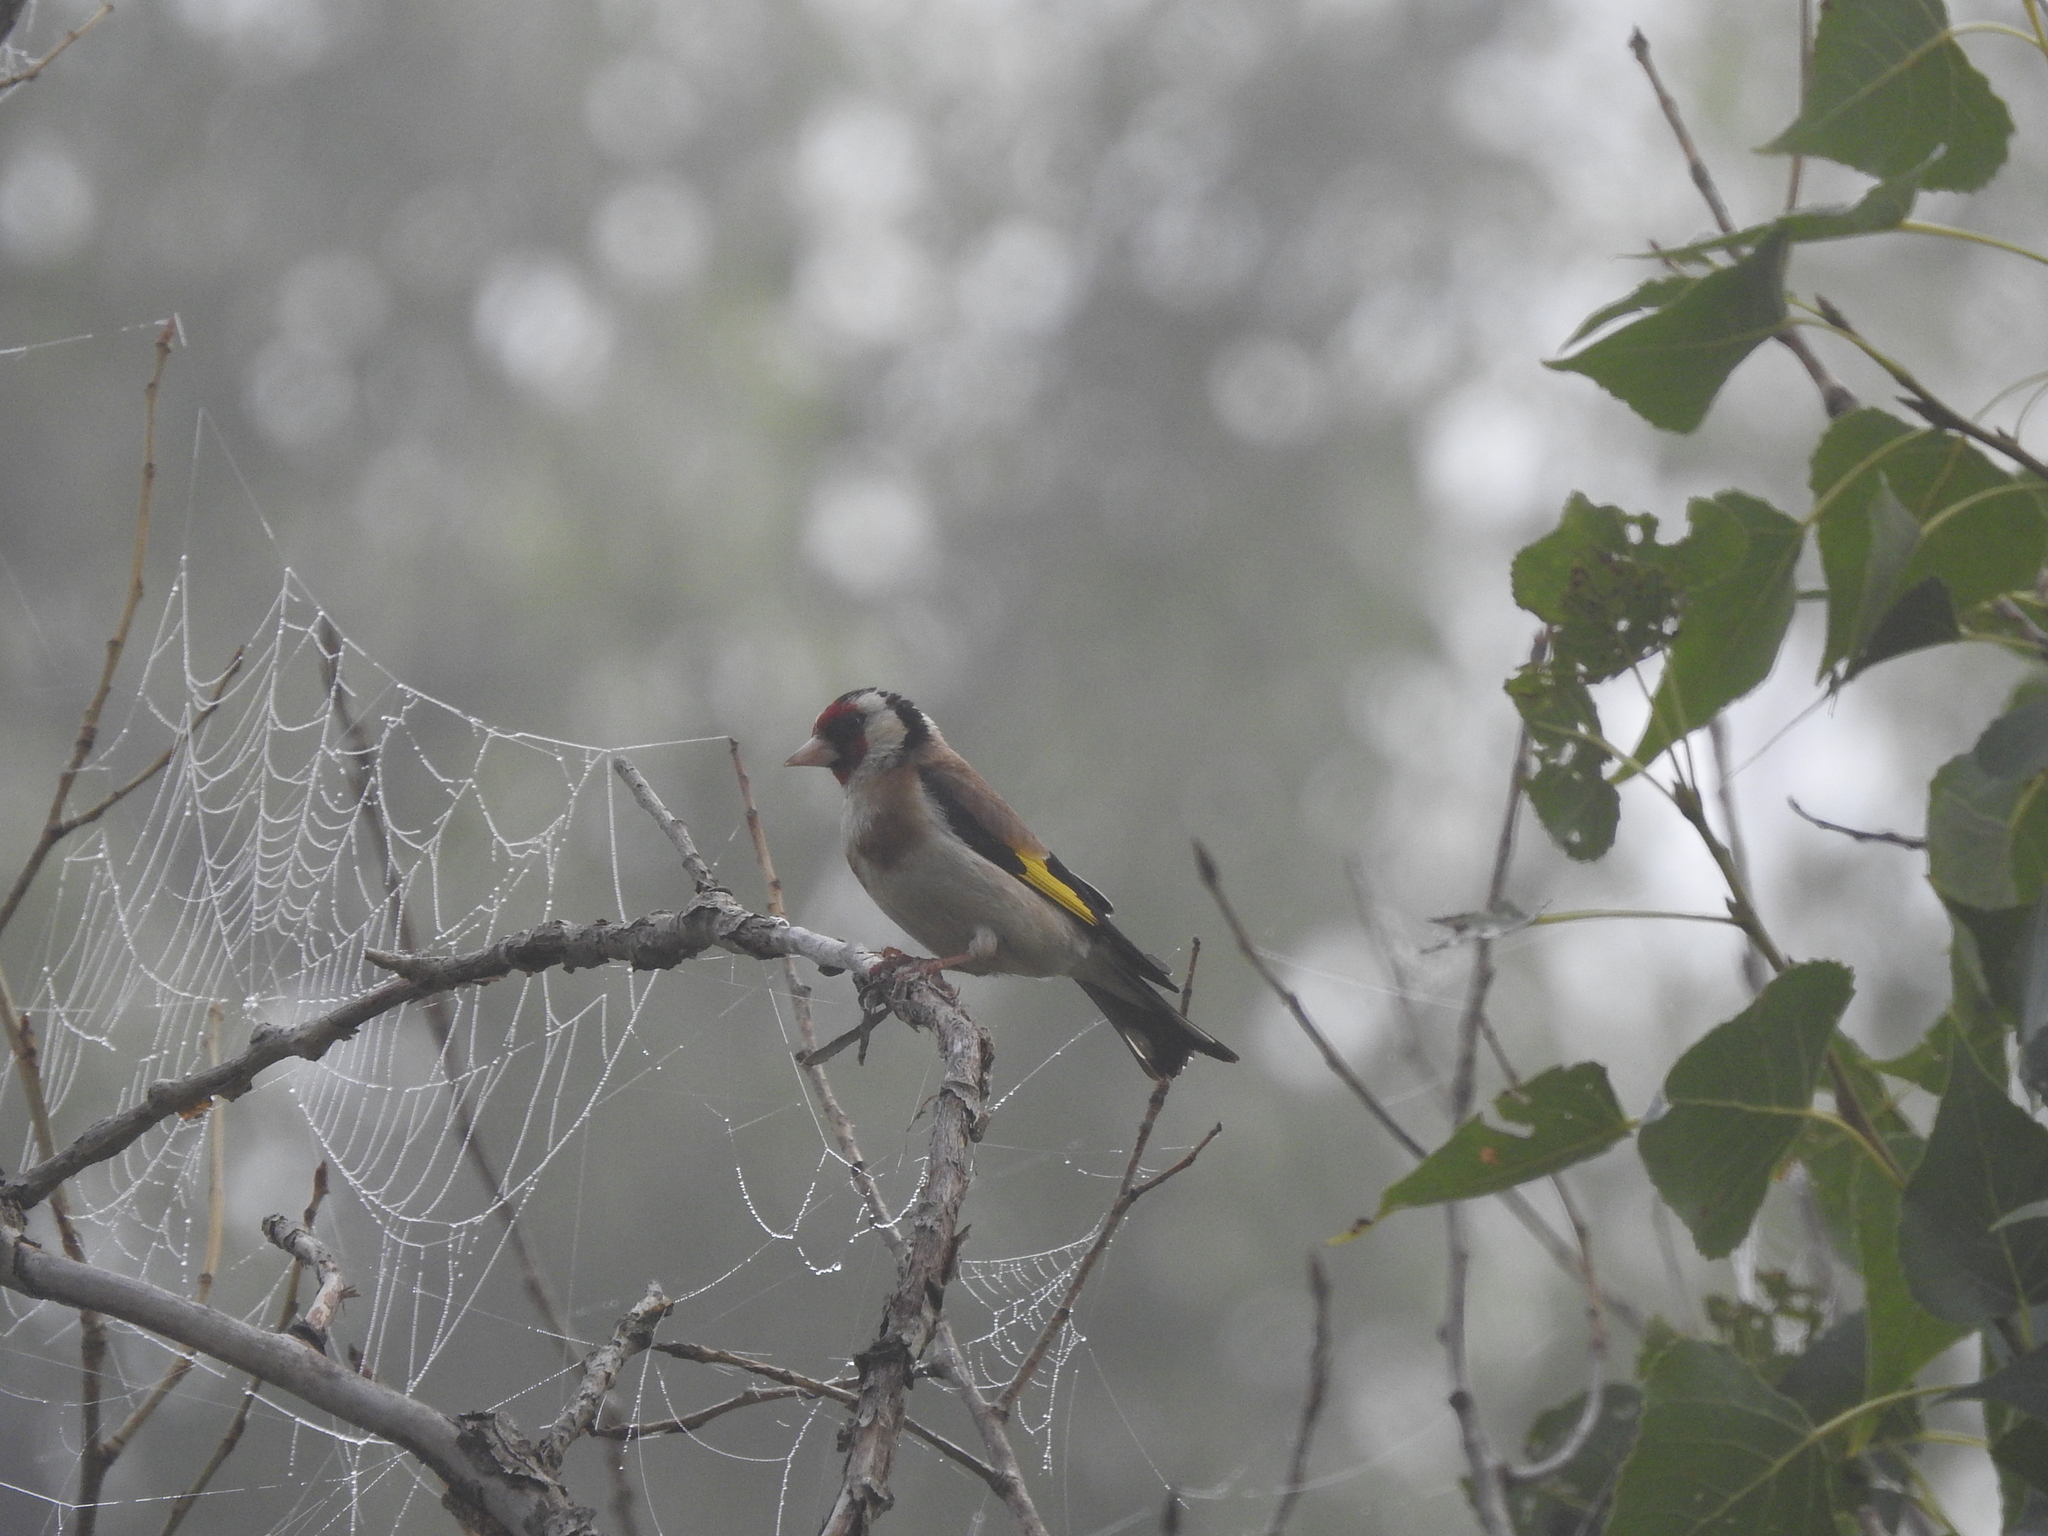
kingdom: Animalia
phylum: Chordata
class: Aves
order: Passeriformes
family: Fringillidae
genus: Carduelis
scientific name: Carduelis carduelis
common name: European goldfinch
